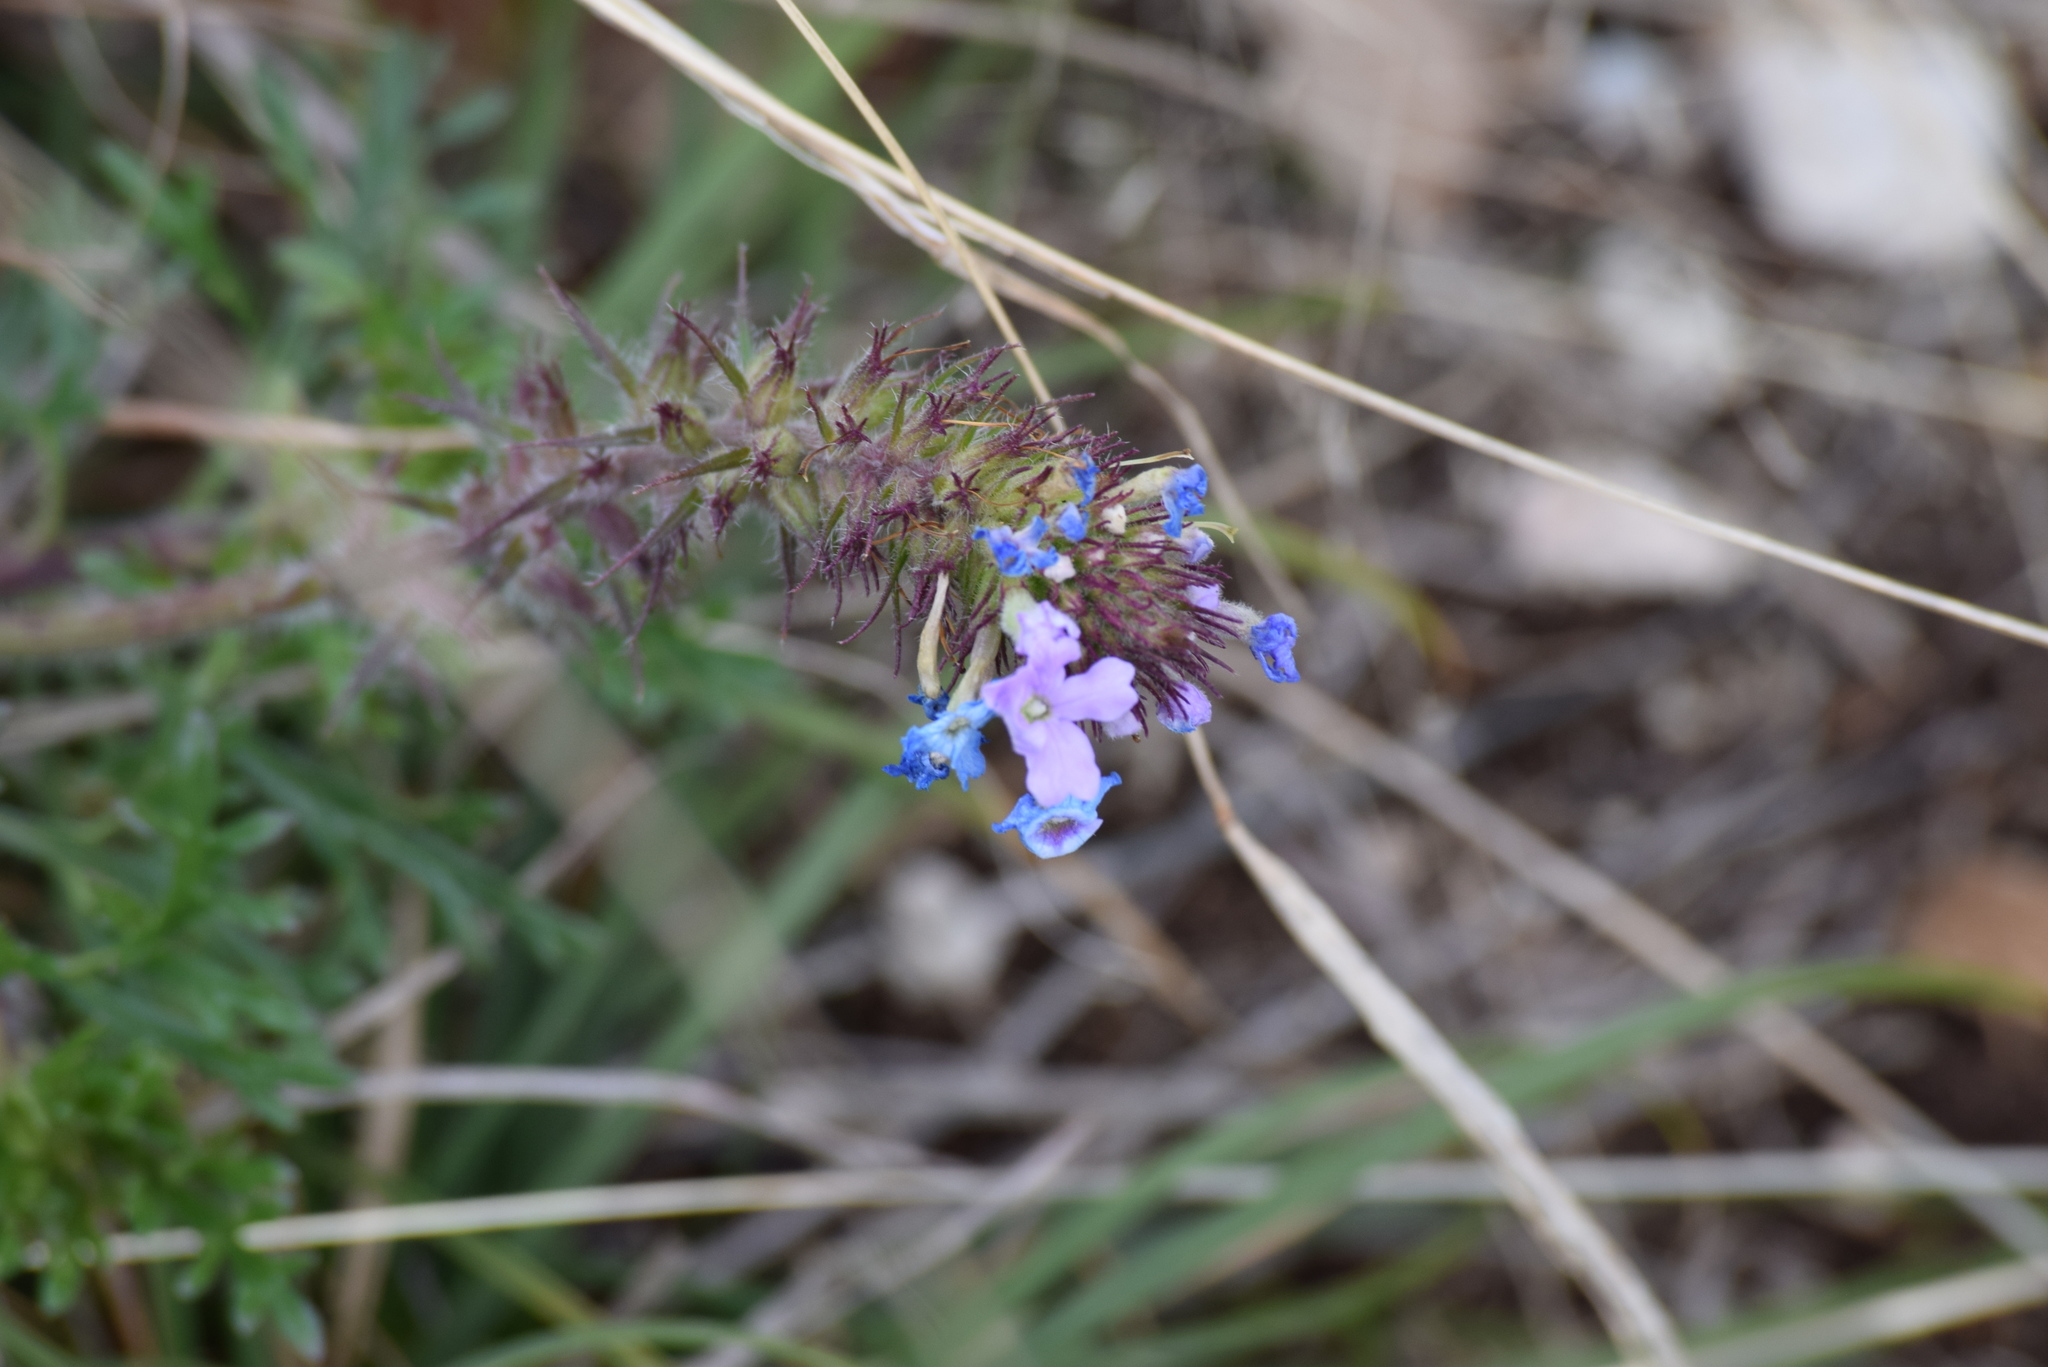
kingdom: Plantae
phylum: Tracheophyta
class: Magnoliopsida
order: Lamiales
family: Verbenaceae
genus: Verbena
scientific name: Verbena bipinnatifida
